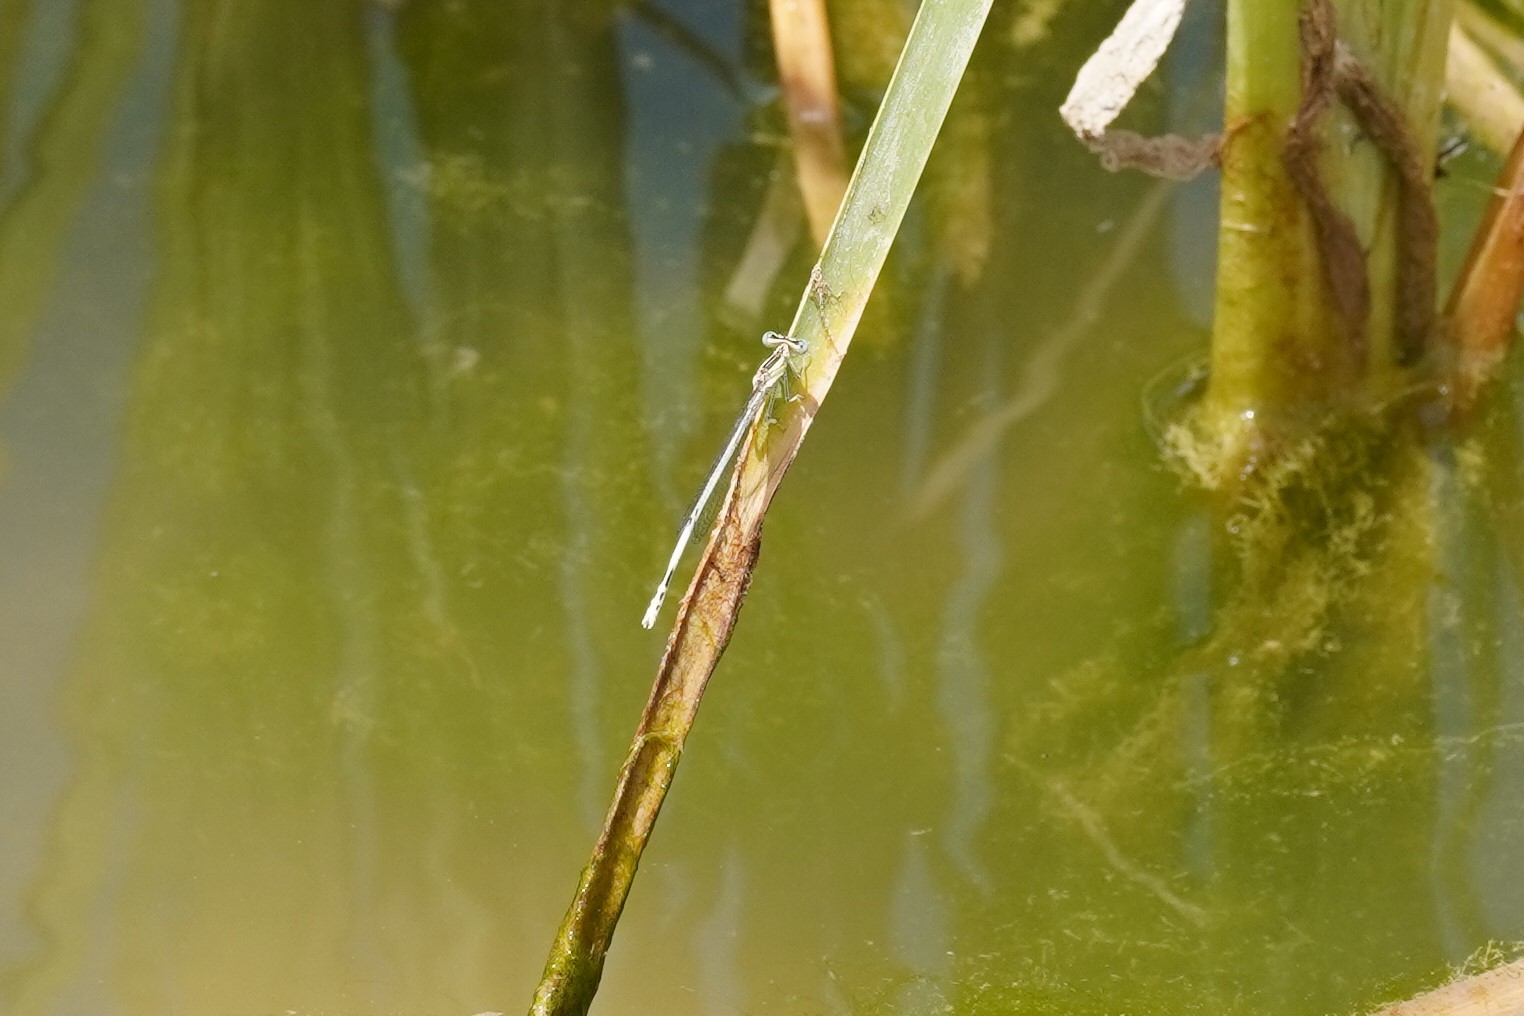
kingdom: Animalia
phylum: Arthropoda
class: Insecta
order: Odonata
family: Platycnemididae
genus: Platycnemis
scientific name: Platycnemis latipes
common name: White featherleg
